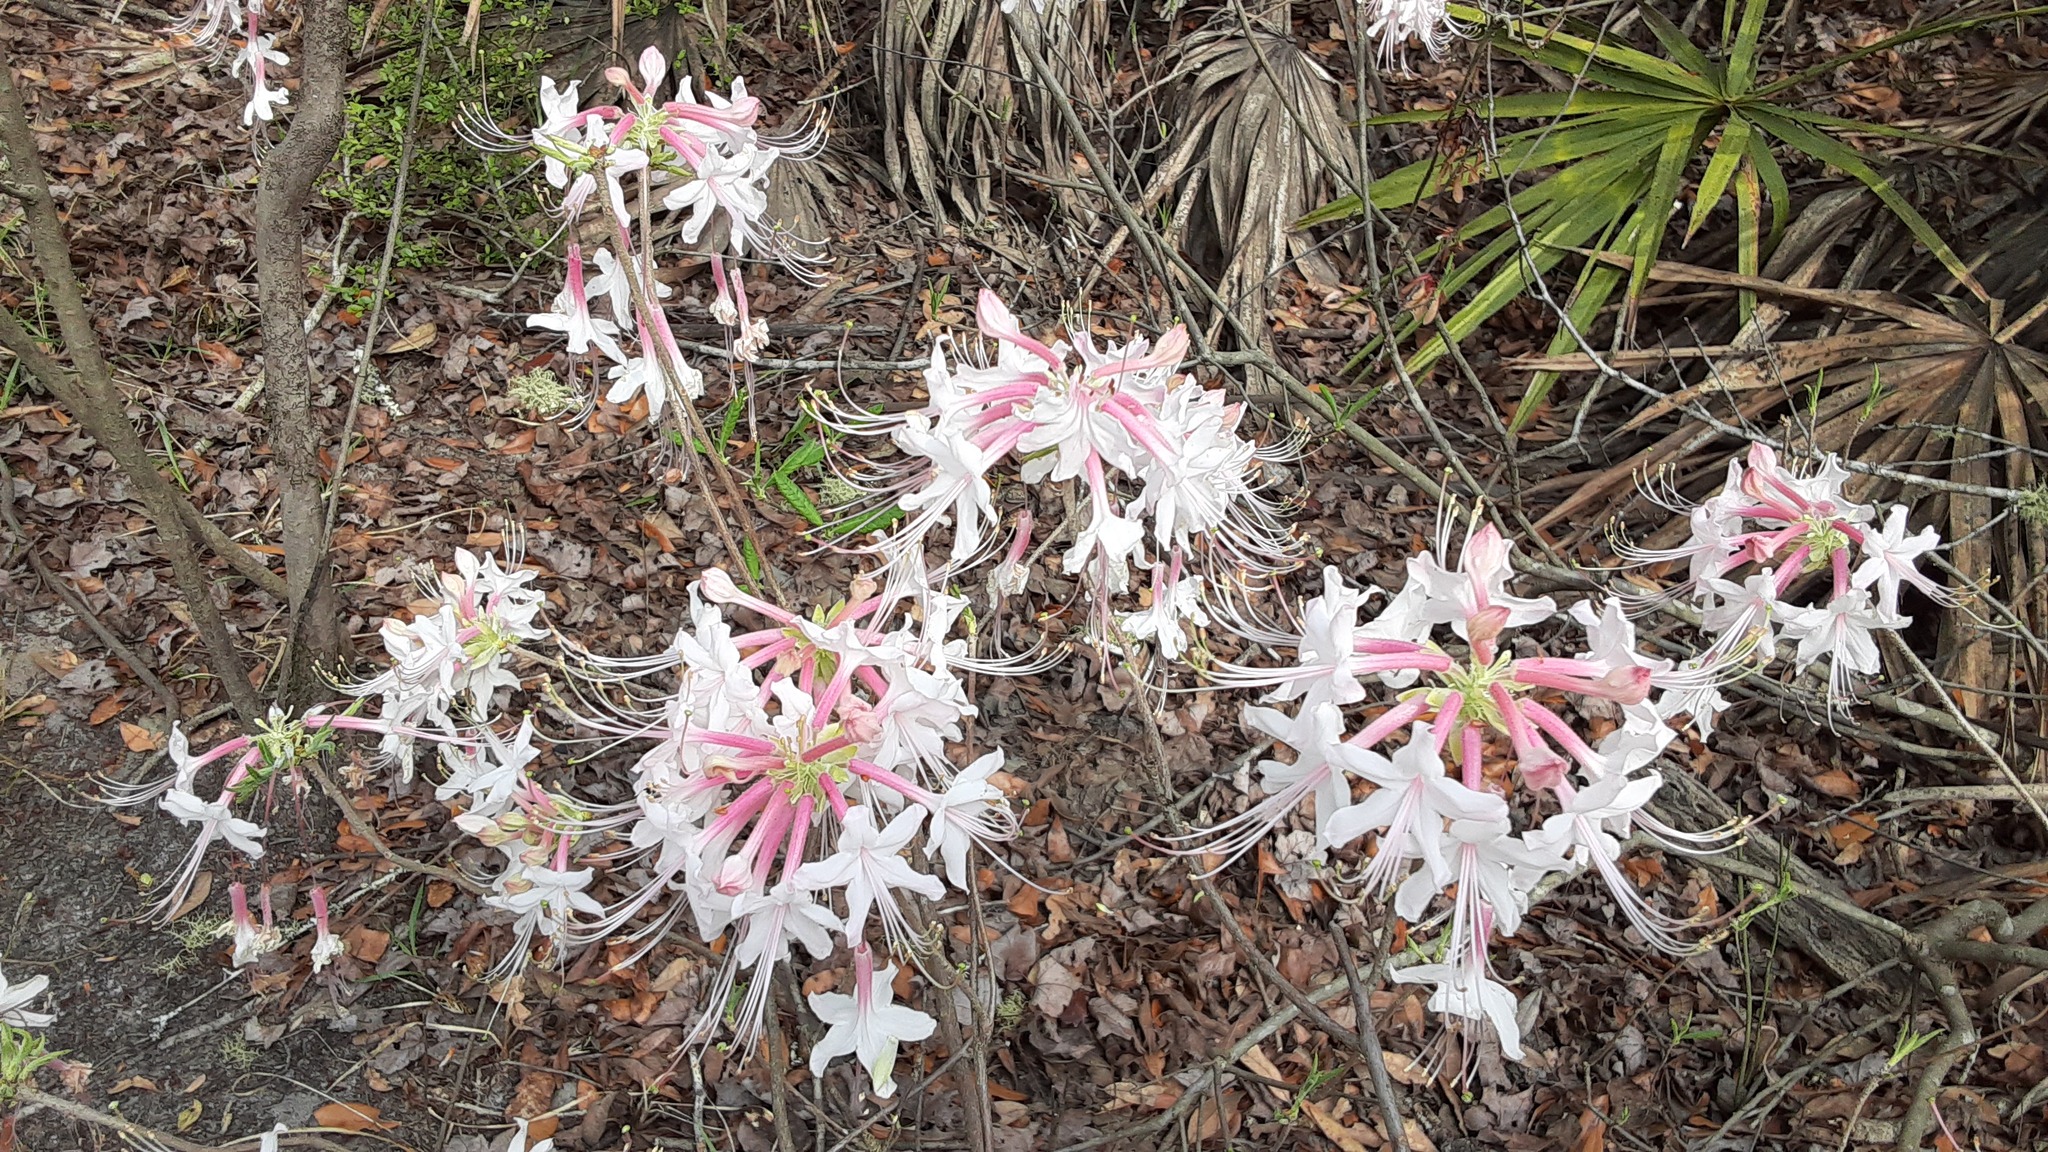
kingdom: Plantae
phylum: Tracheophyta
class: Magnoliopsida
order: Ericales
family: Ericaceae
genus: Rhododendron
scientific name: Rhododendron canescens
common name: Mountain azalea
